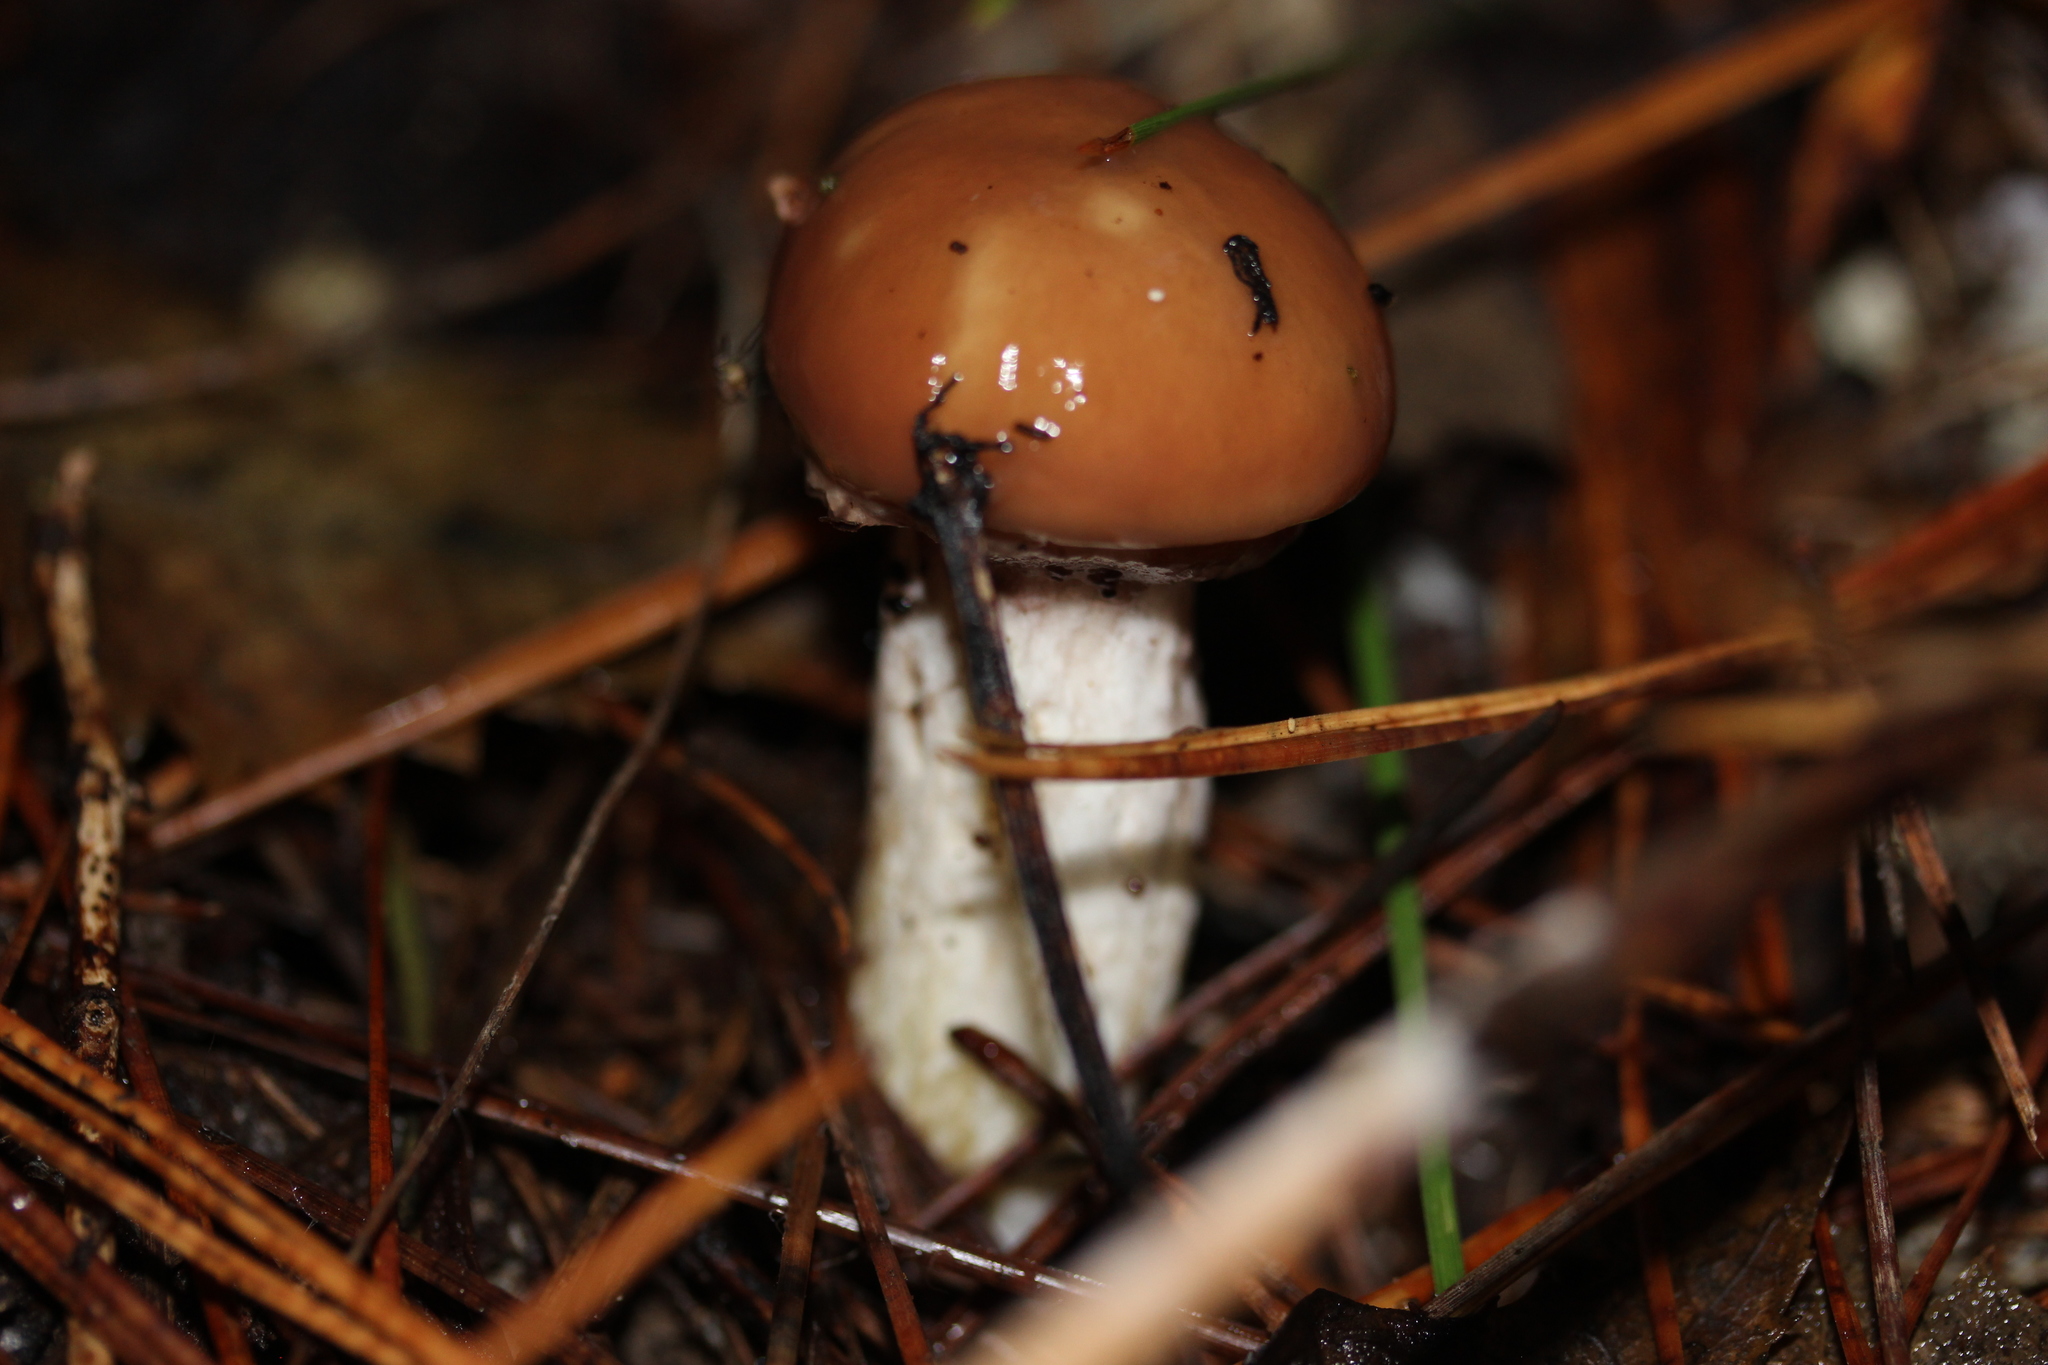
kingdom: Fungi
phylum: Basidiomycota
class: Agaricomycetes
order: Boletales
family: Suillaceae
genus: Suillus
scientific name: Suillus luteus
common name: Slippery jack
